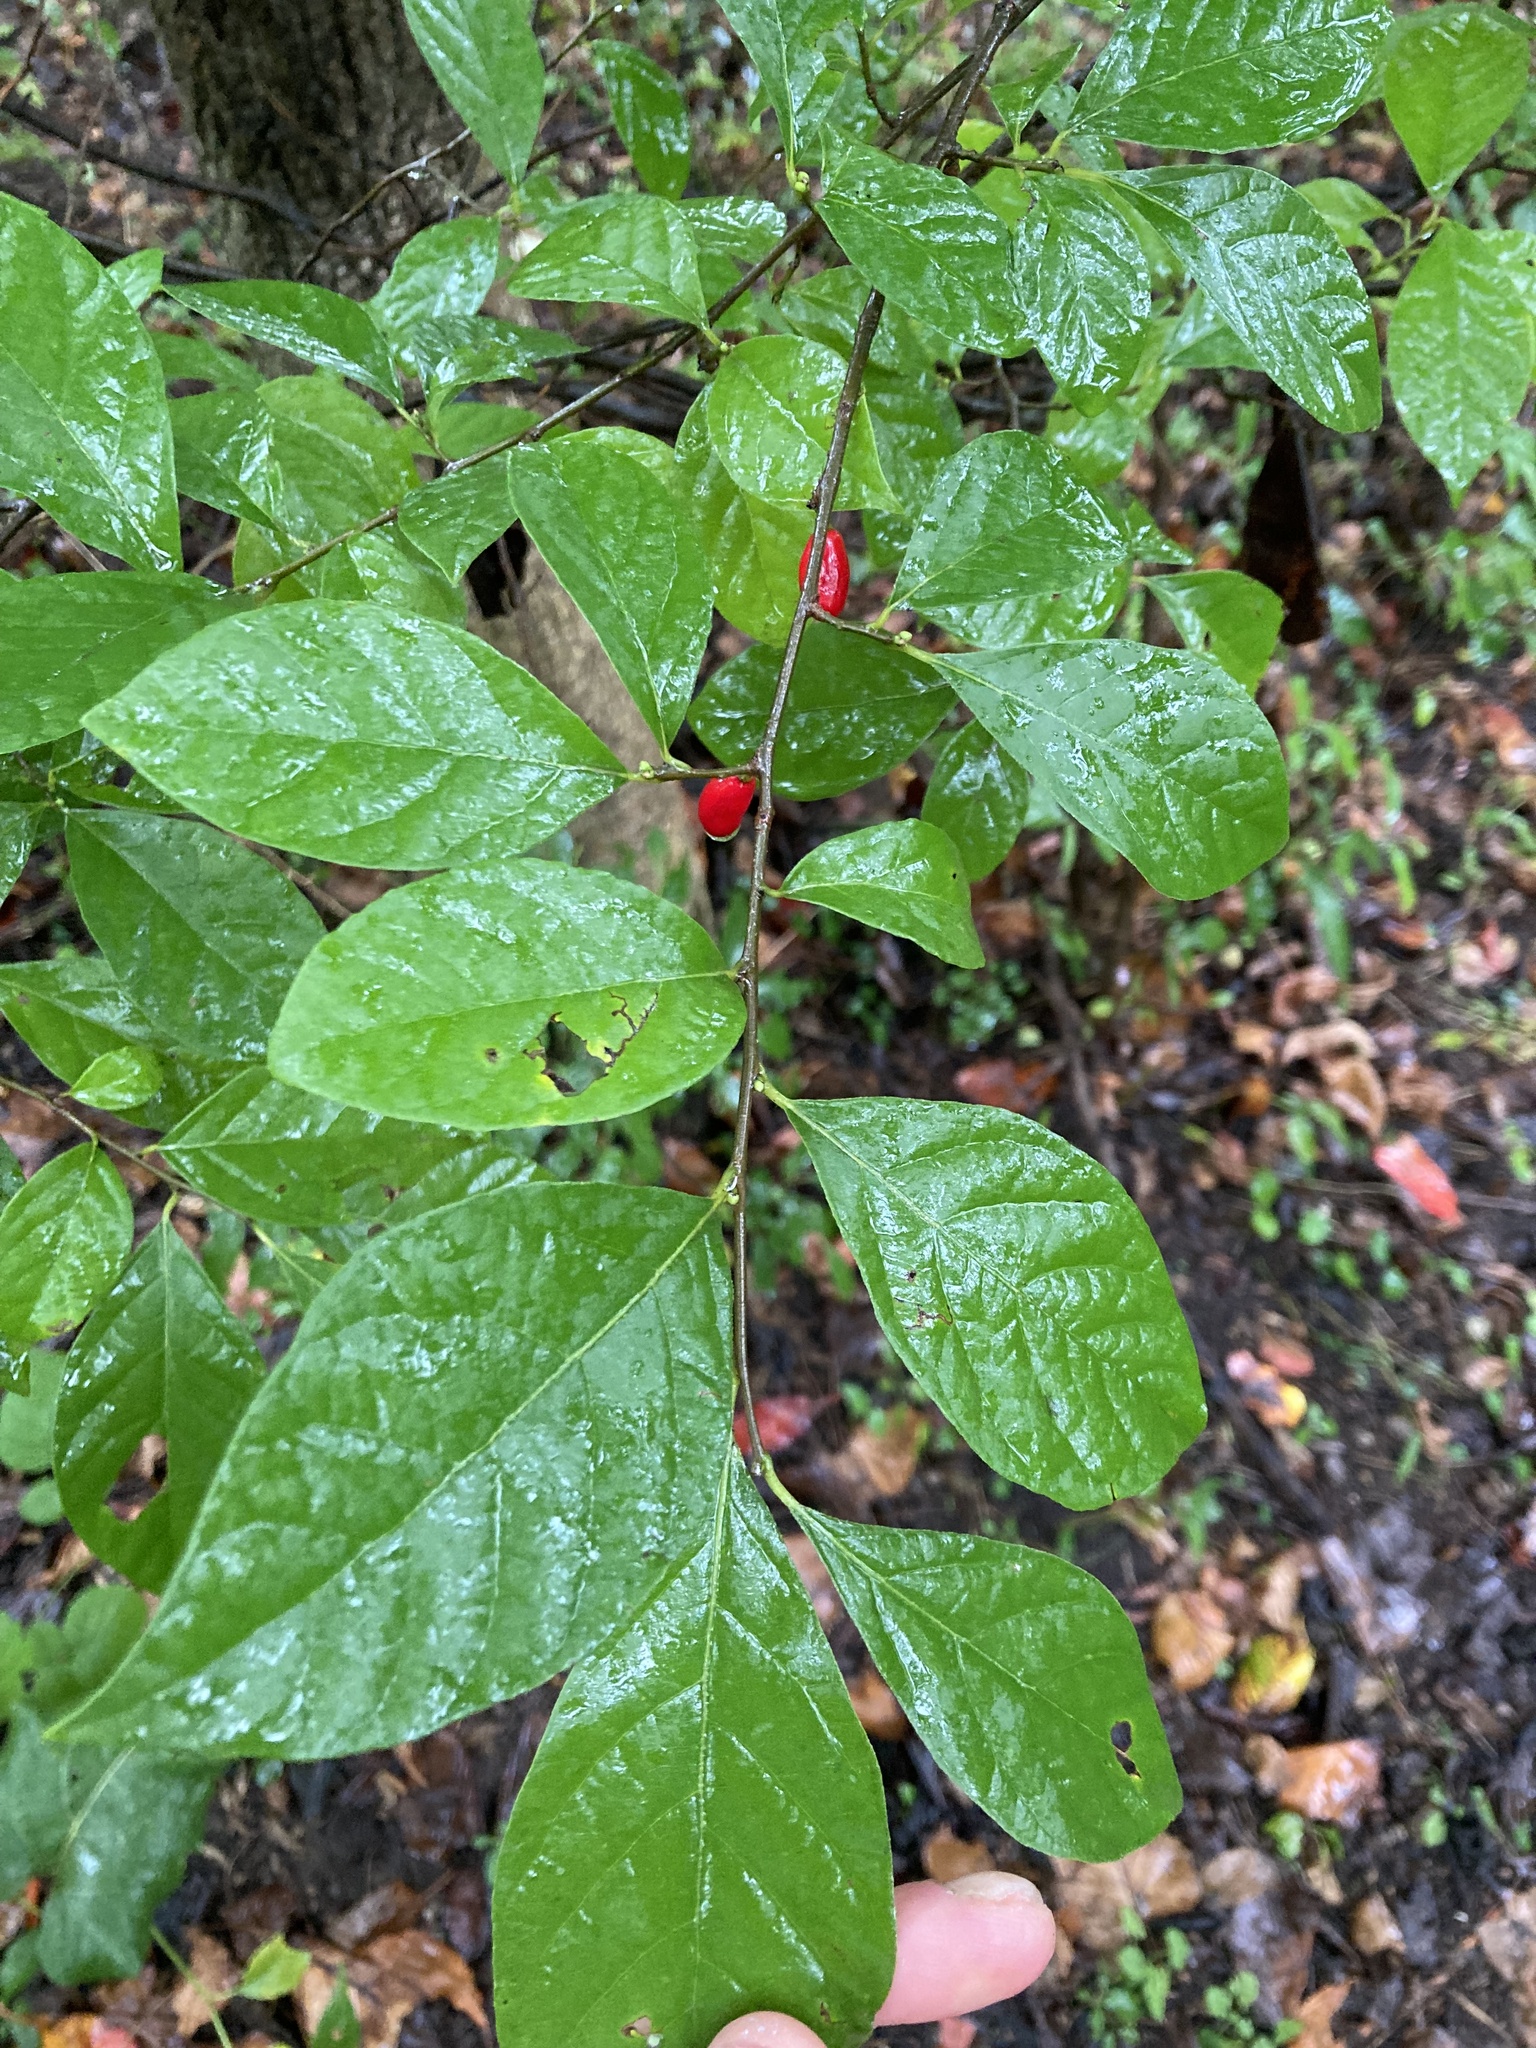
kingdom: Plantae
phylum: Tracheophyta
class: Magnoliopsida
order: Laurales
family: Lauraceae
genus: Lindera
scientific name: Lindera benzoin
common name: Spicebush
